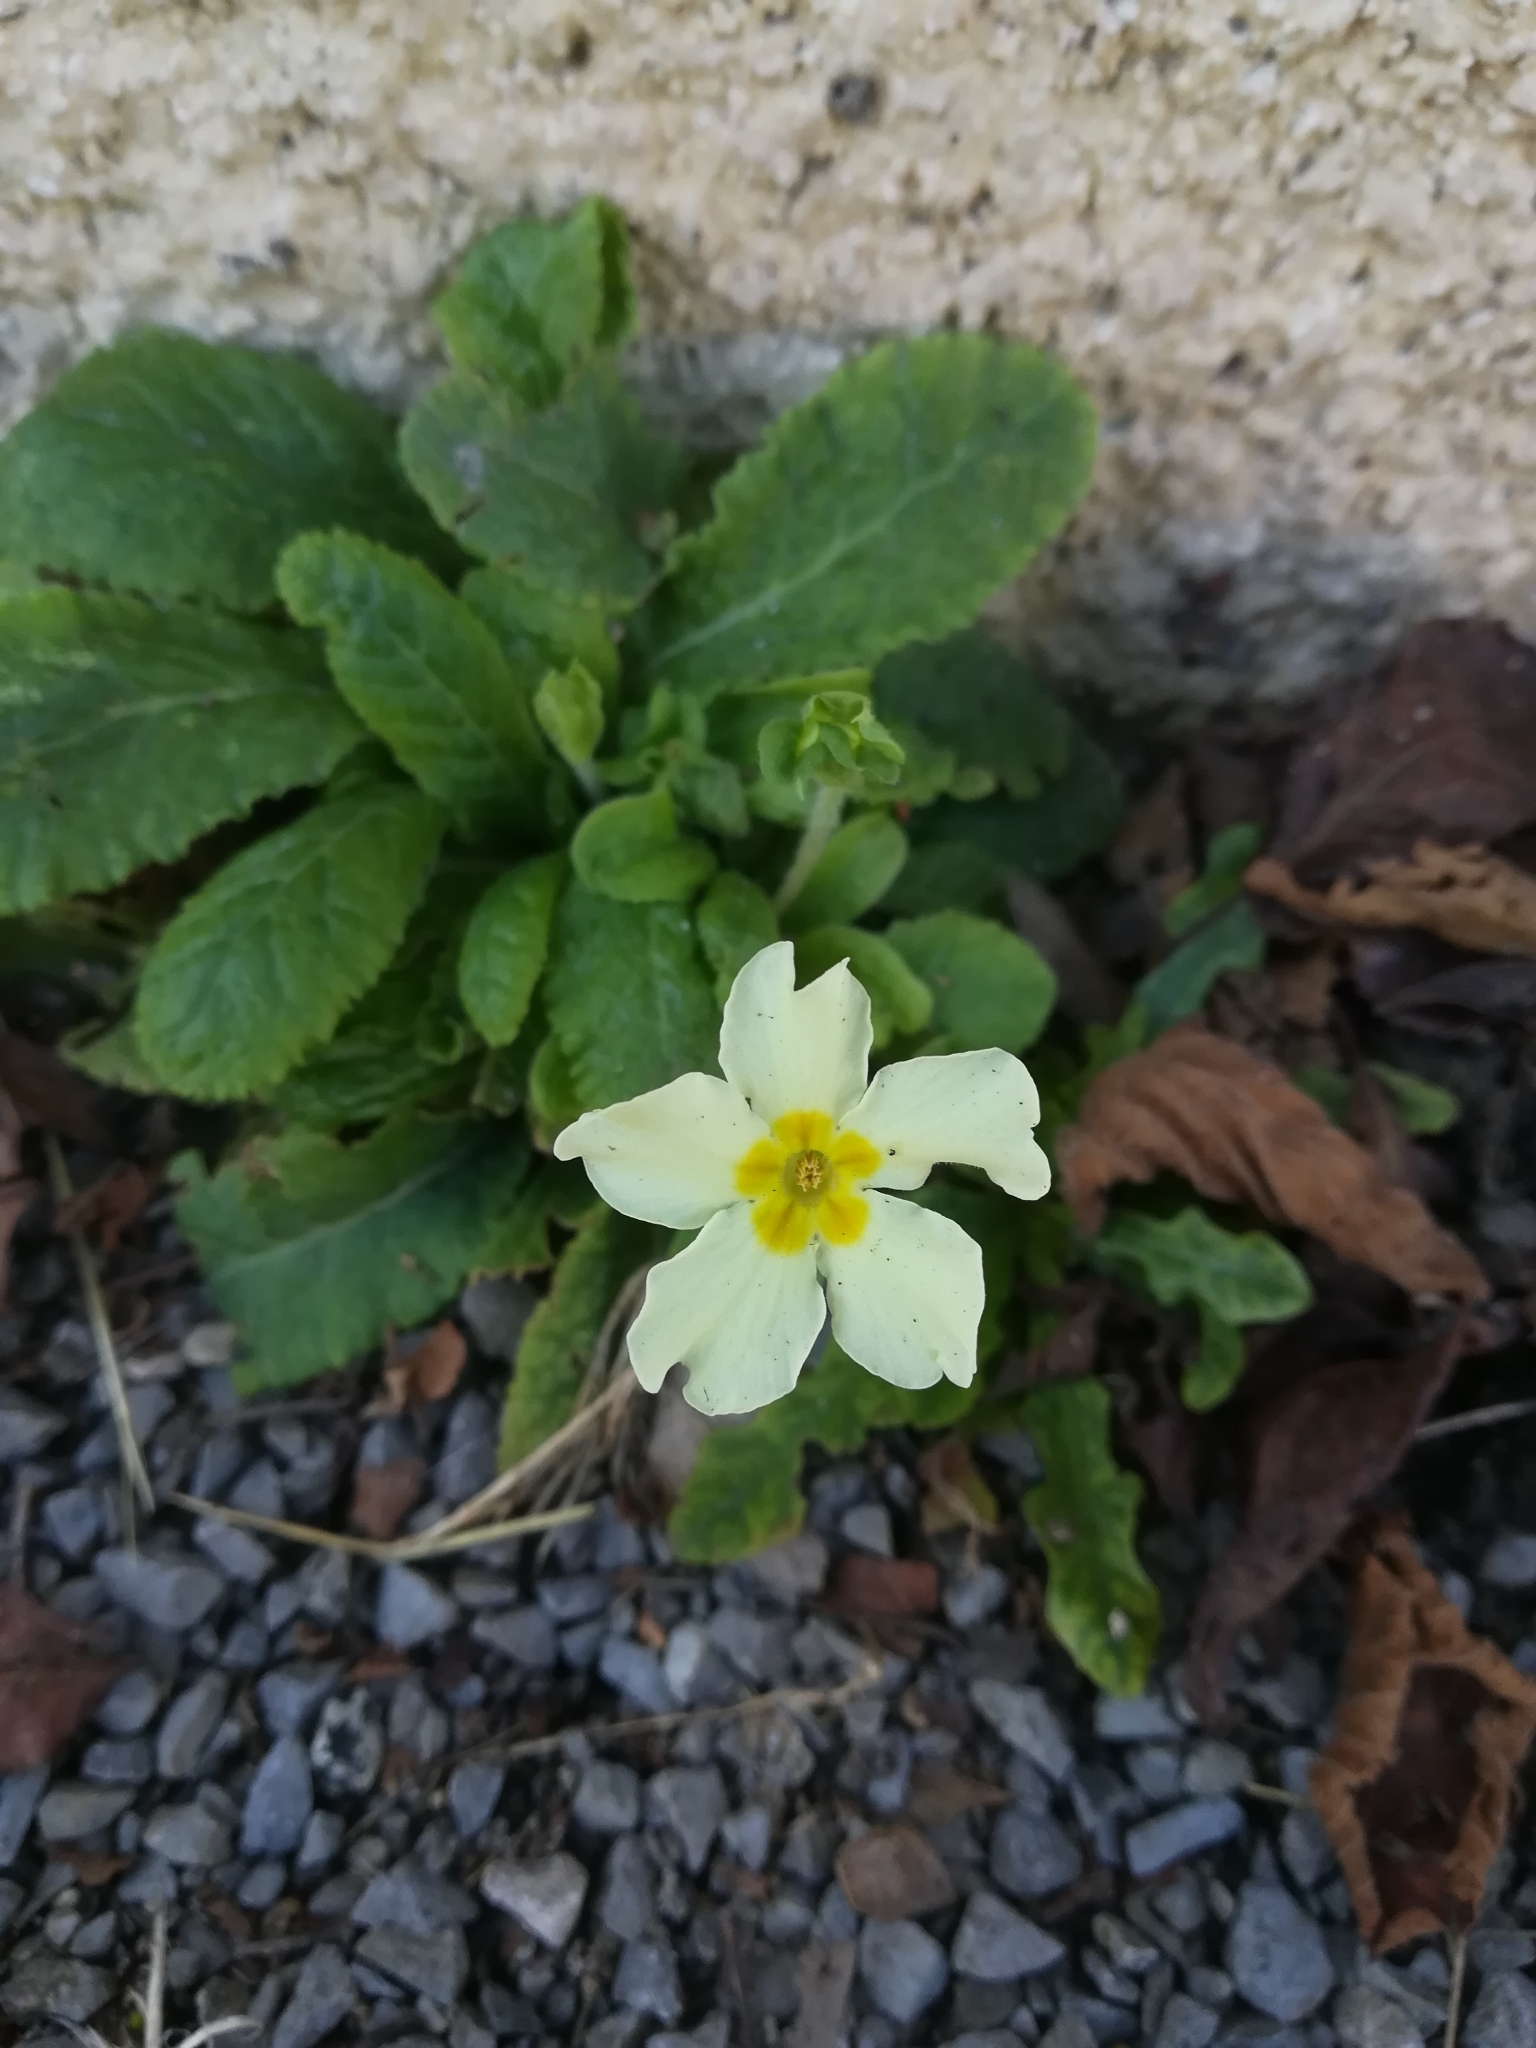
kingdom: Plantae
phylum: Tracheophyta
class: Magnoliopsida
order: Ericales
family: Primulaceae
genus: Primula
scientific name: Primula vulgaris
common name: Primrose
